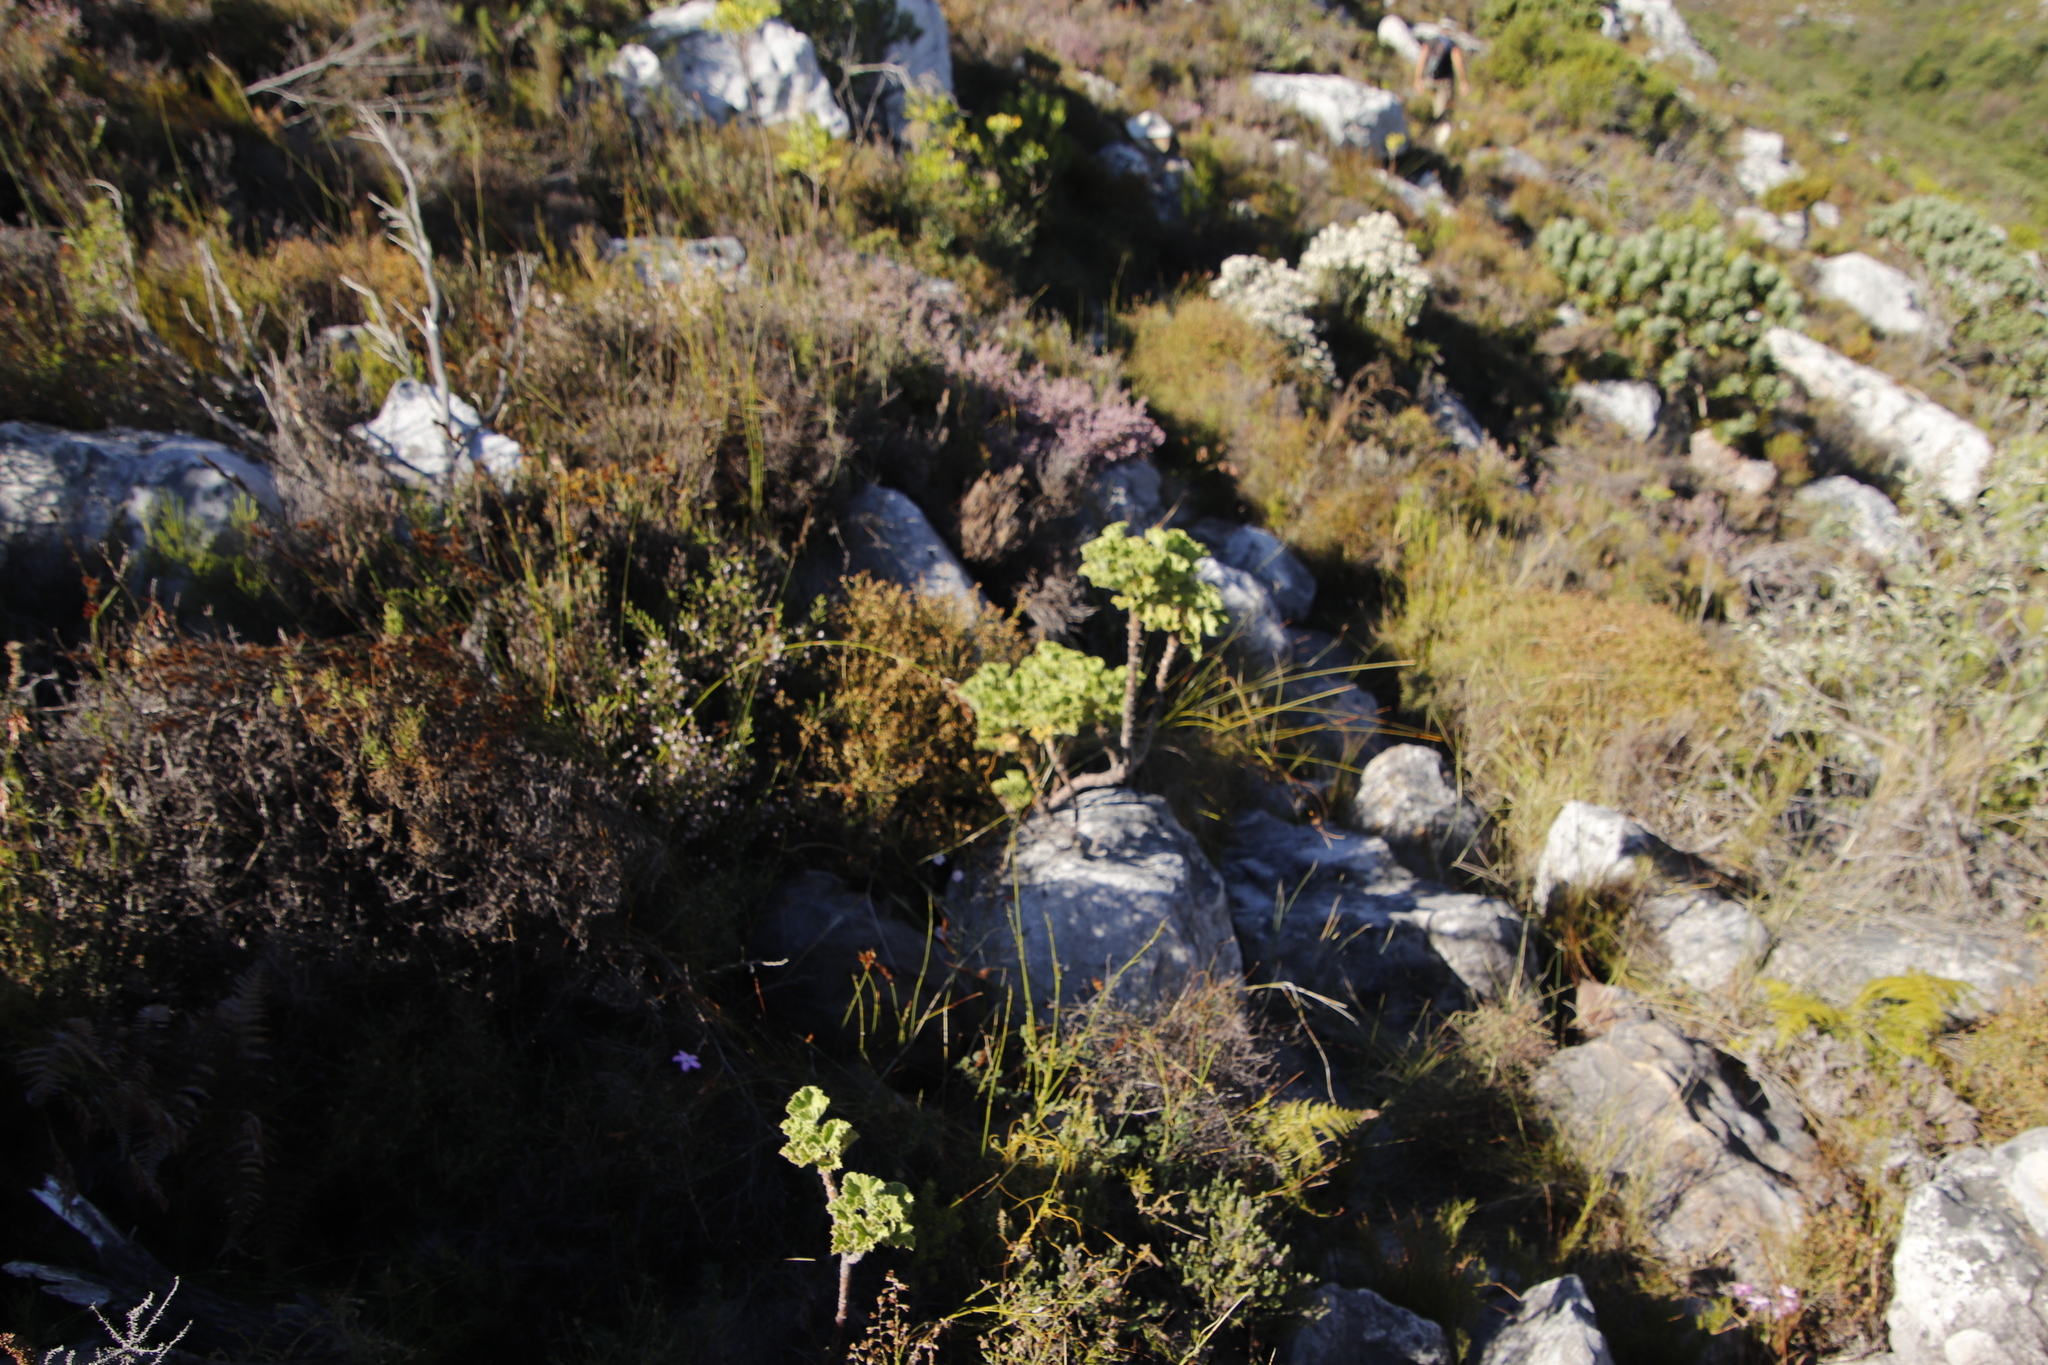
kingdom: Plantae
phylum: Tracheophyta
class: Magnoliopsida
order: Geraniales
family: Geraniaceae
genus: Pelargonium
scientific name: Pelargonium cucullatum
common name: Tree pelargonium
